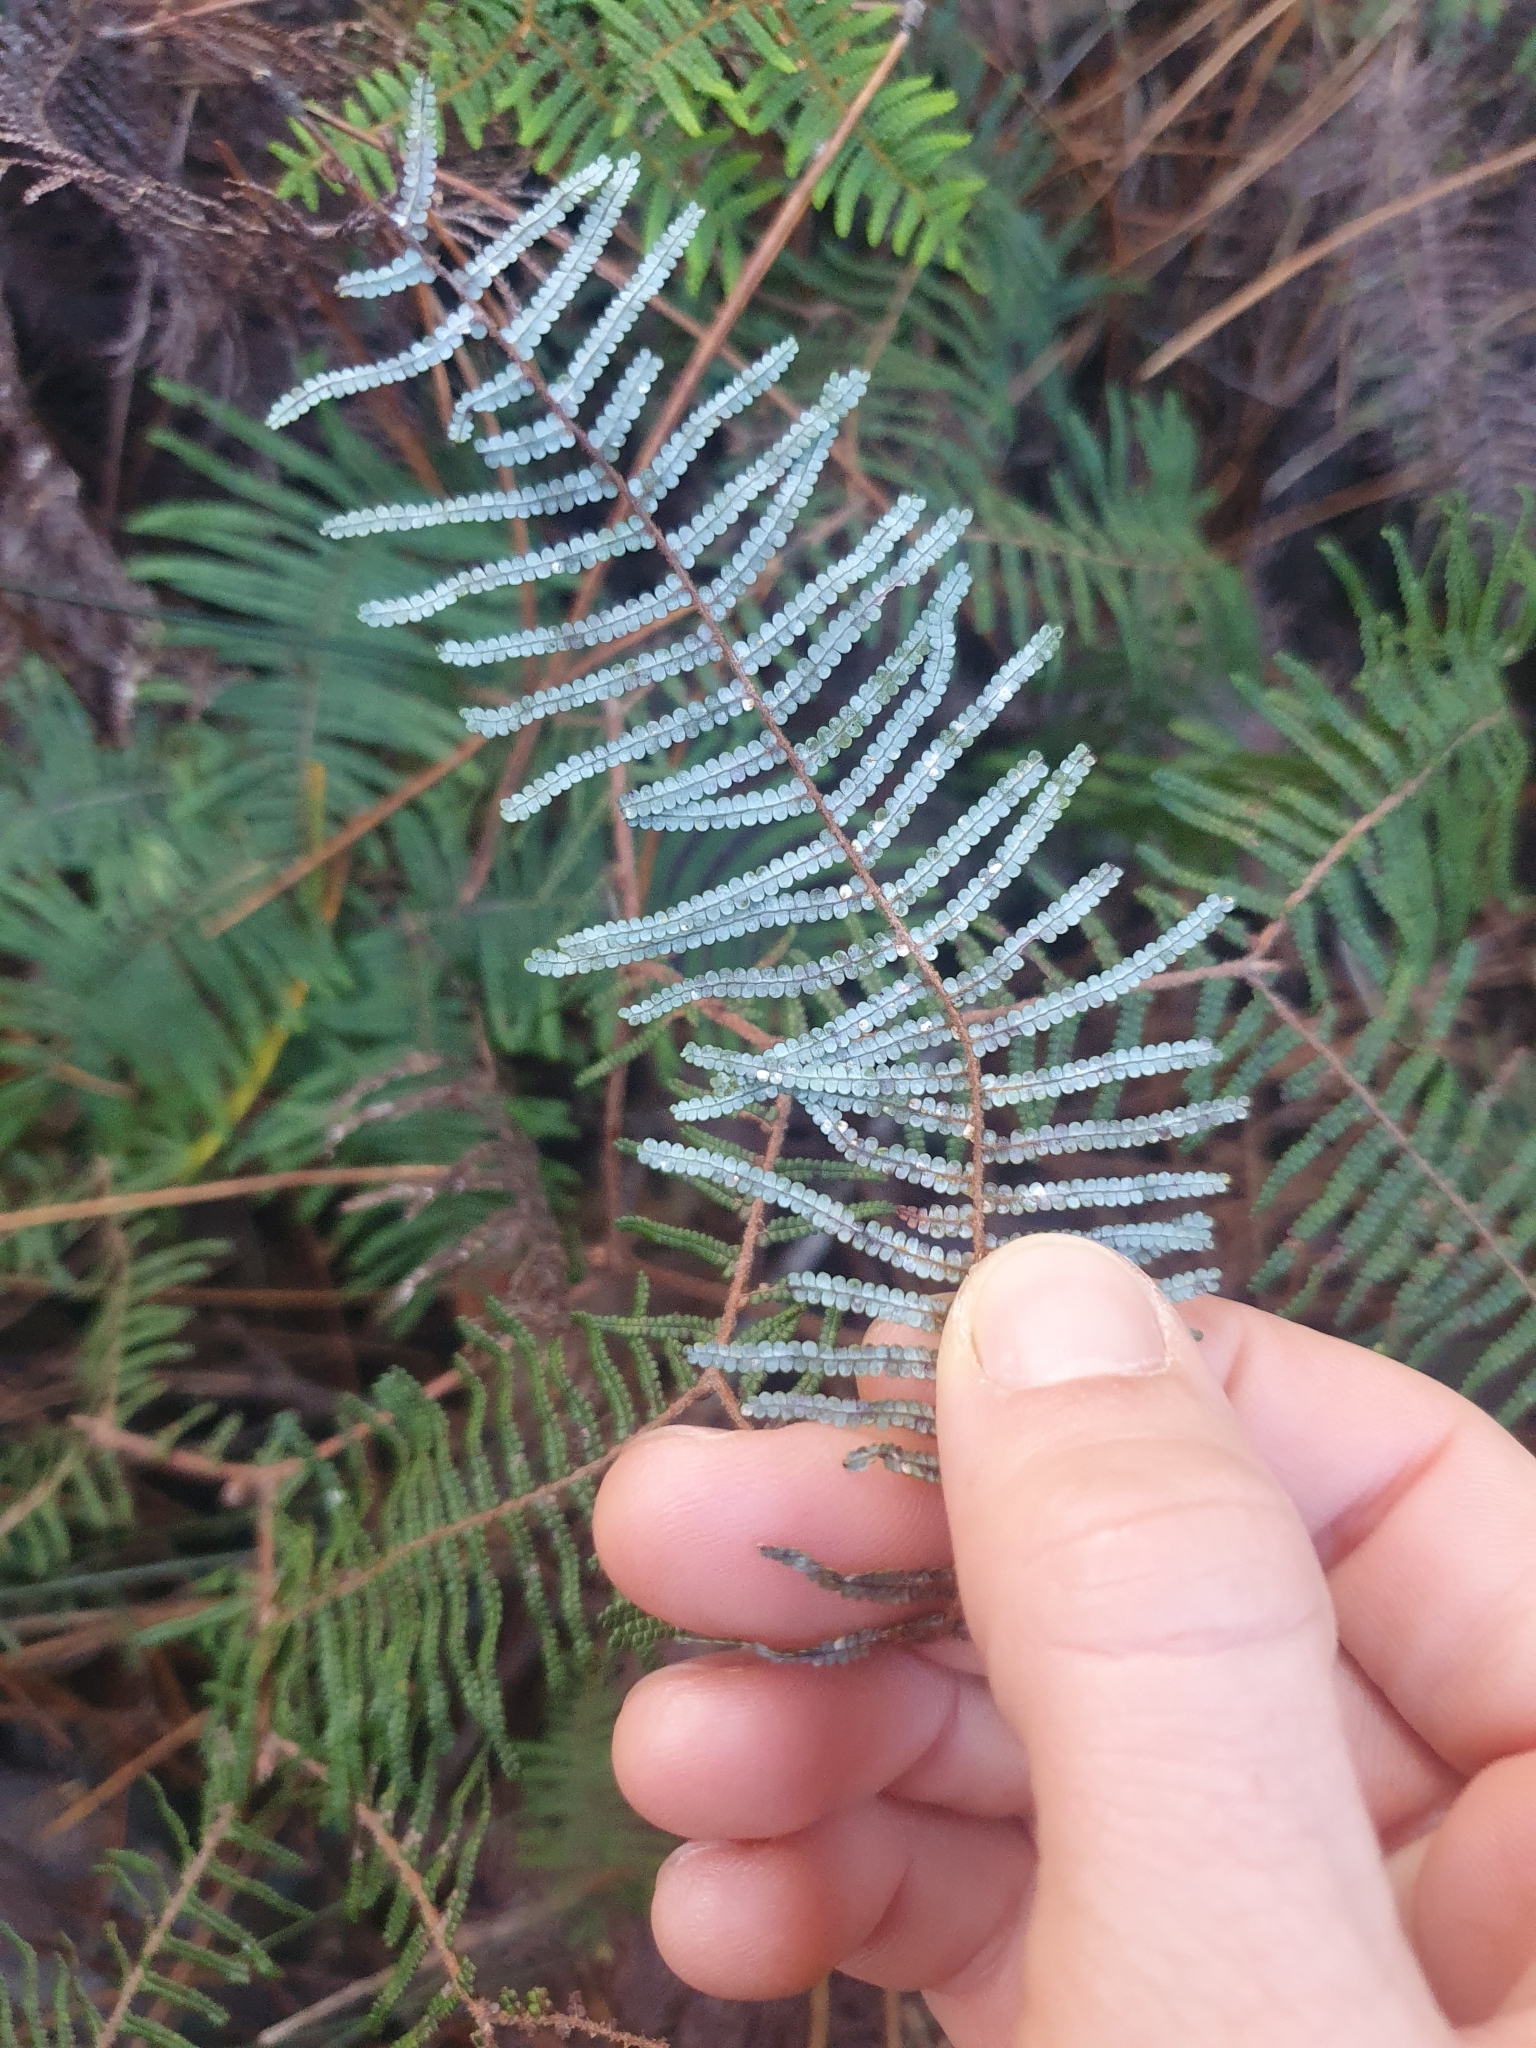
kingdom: Plantae
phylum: Tracheophyta
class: Polypodiopsida
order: Gleicheniales
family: Gleicheniaceae
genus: Gleichenia
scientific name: Gleichenia dicarpa
